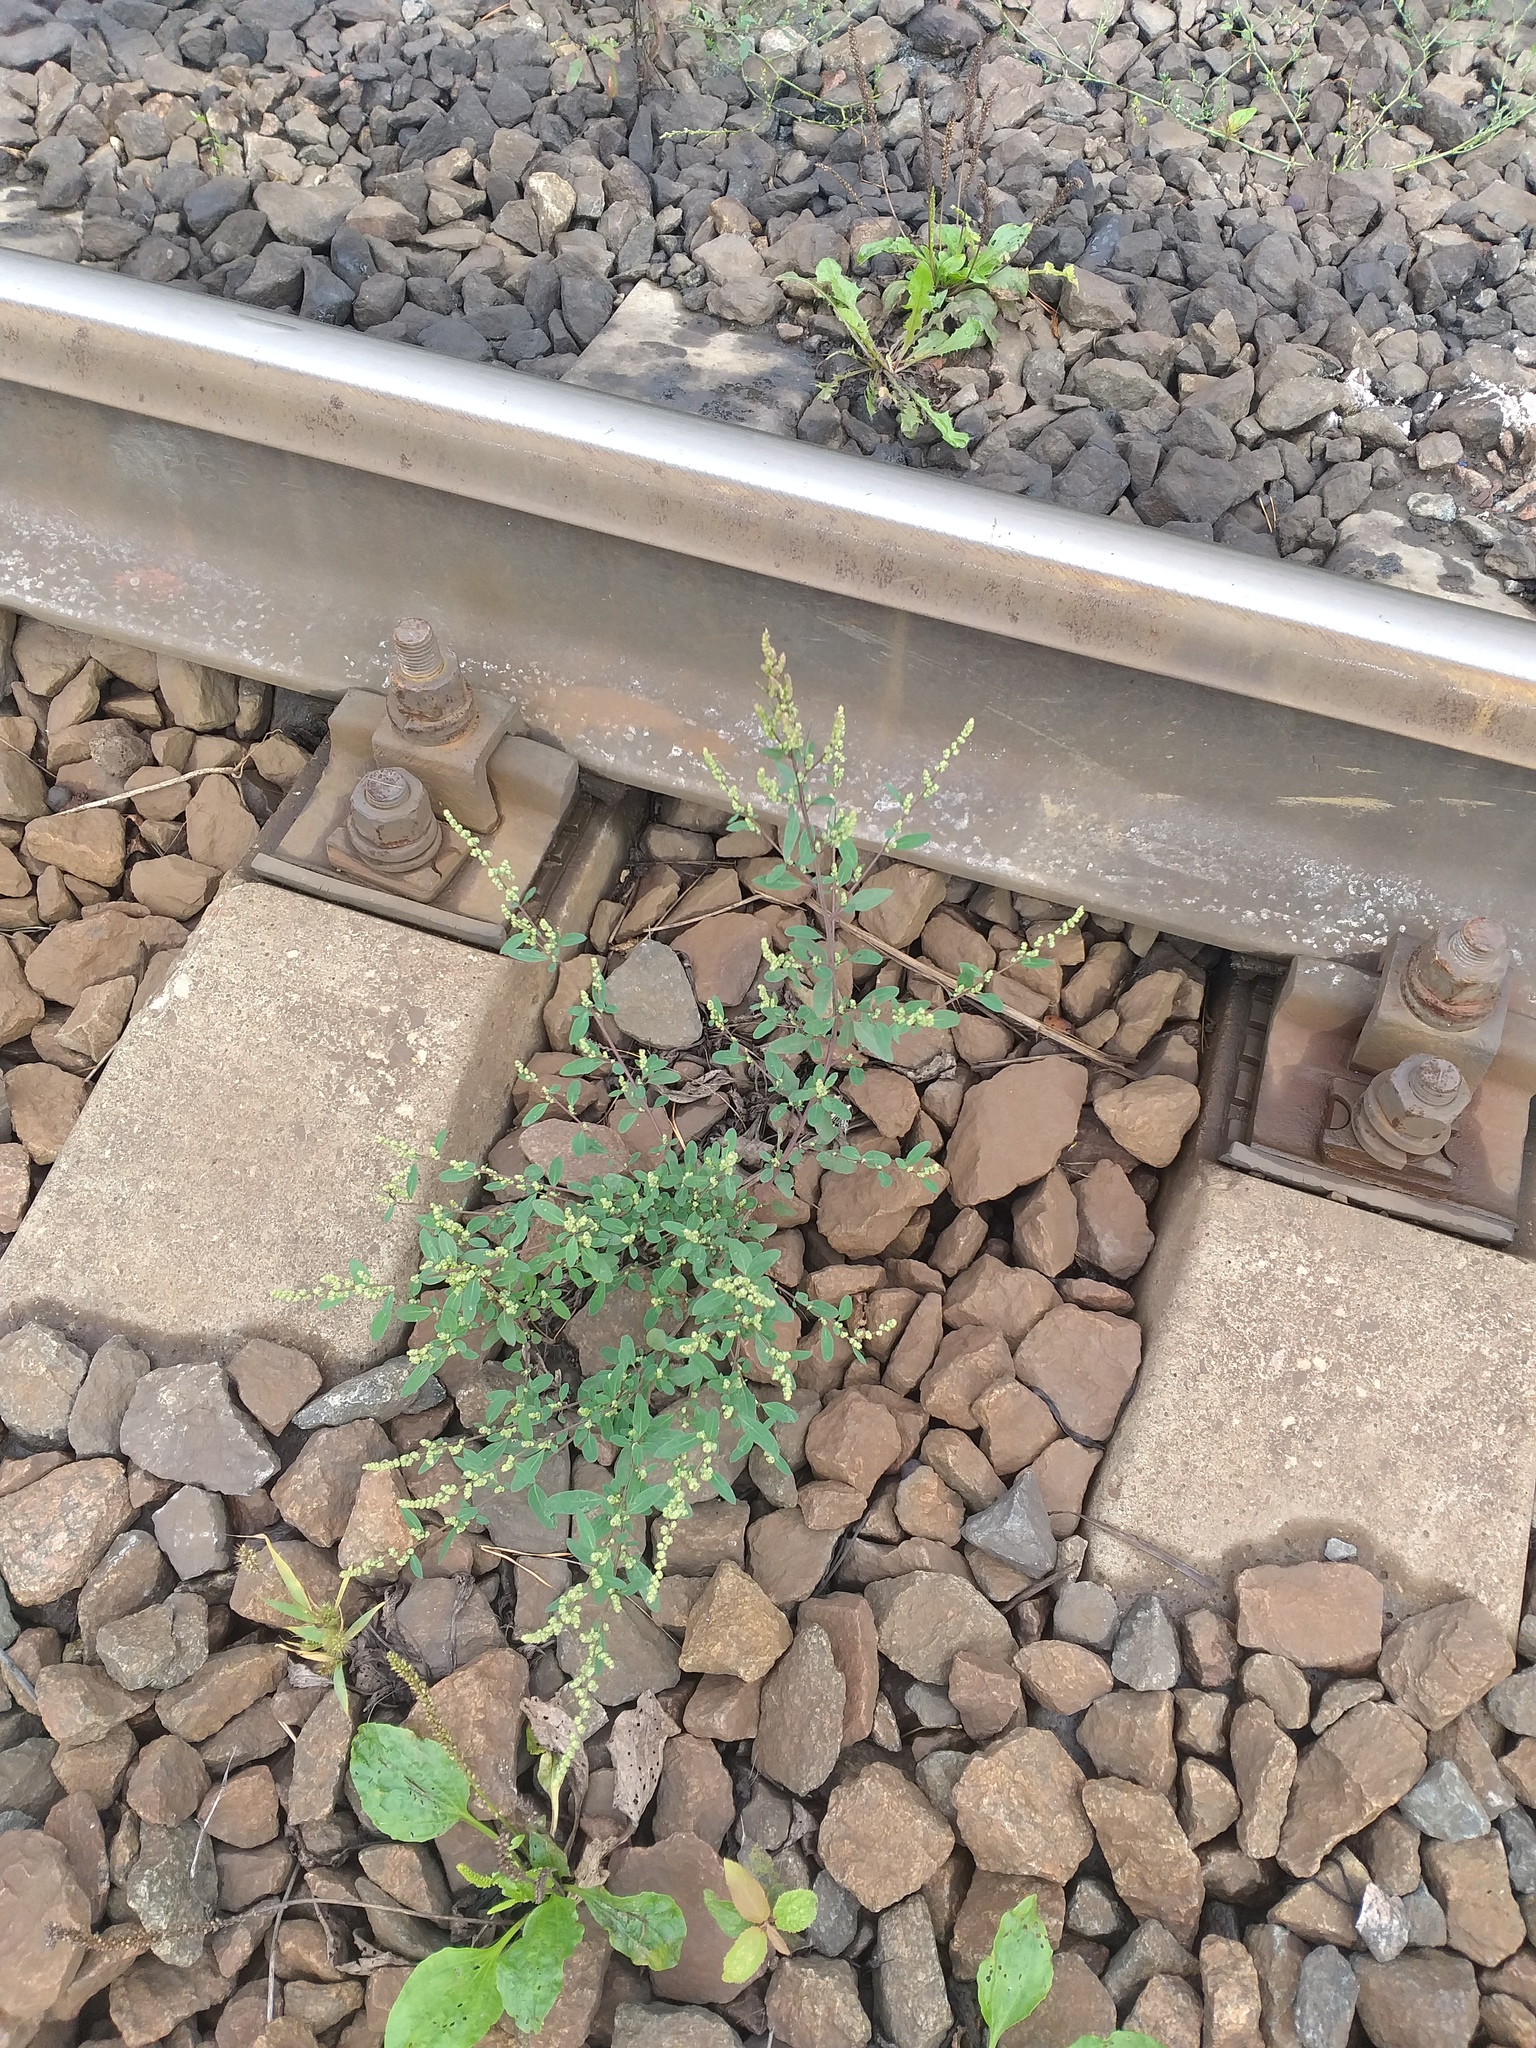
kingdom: Plantae
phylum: Tracheophyta
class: Magnoliopsida
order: Caryophyllales
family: Amaranthaceae
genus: Chenopodium
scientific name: Chenopodium betaceum
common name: Striped goosefoot
